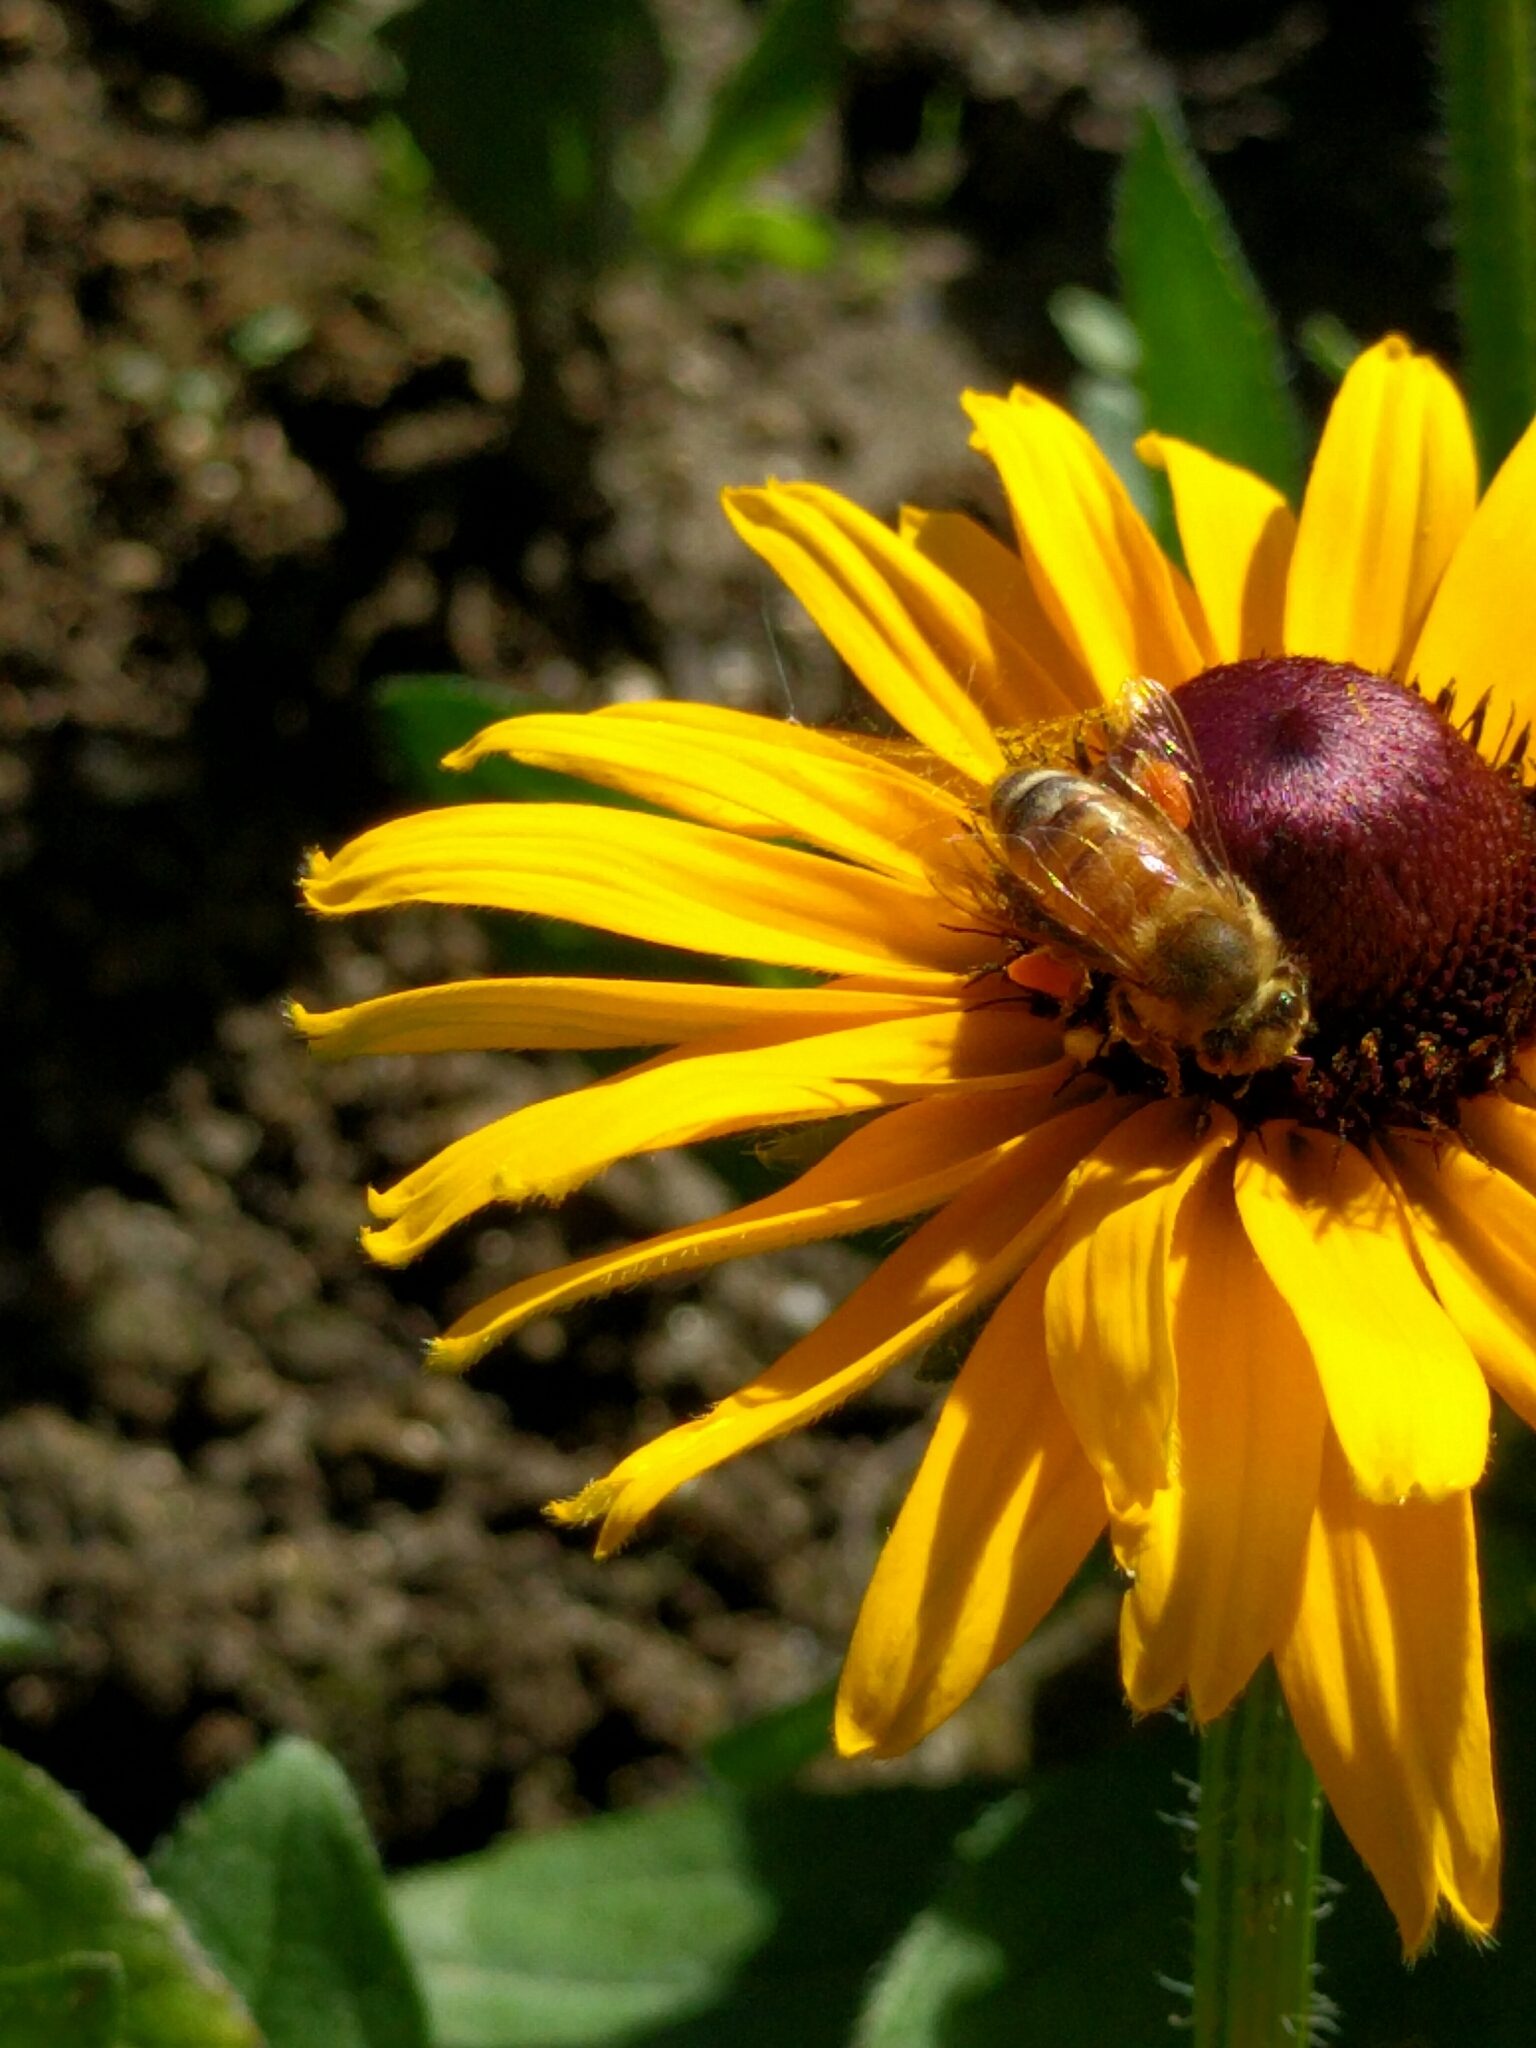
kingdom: Animalia
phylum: Arthropoda
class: Insecta
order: Hymenoptera
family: Apidae
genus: Apis
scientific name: Apis mellifera
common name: Honey bee
